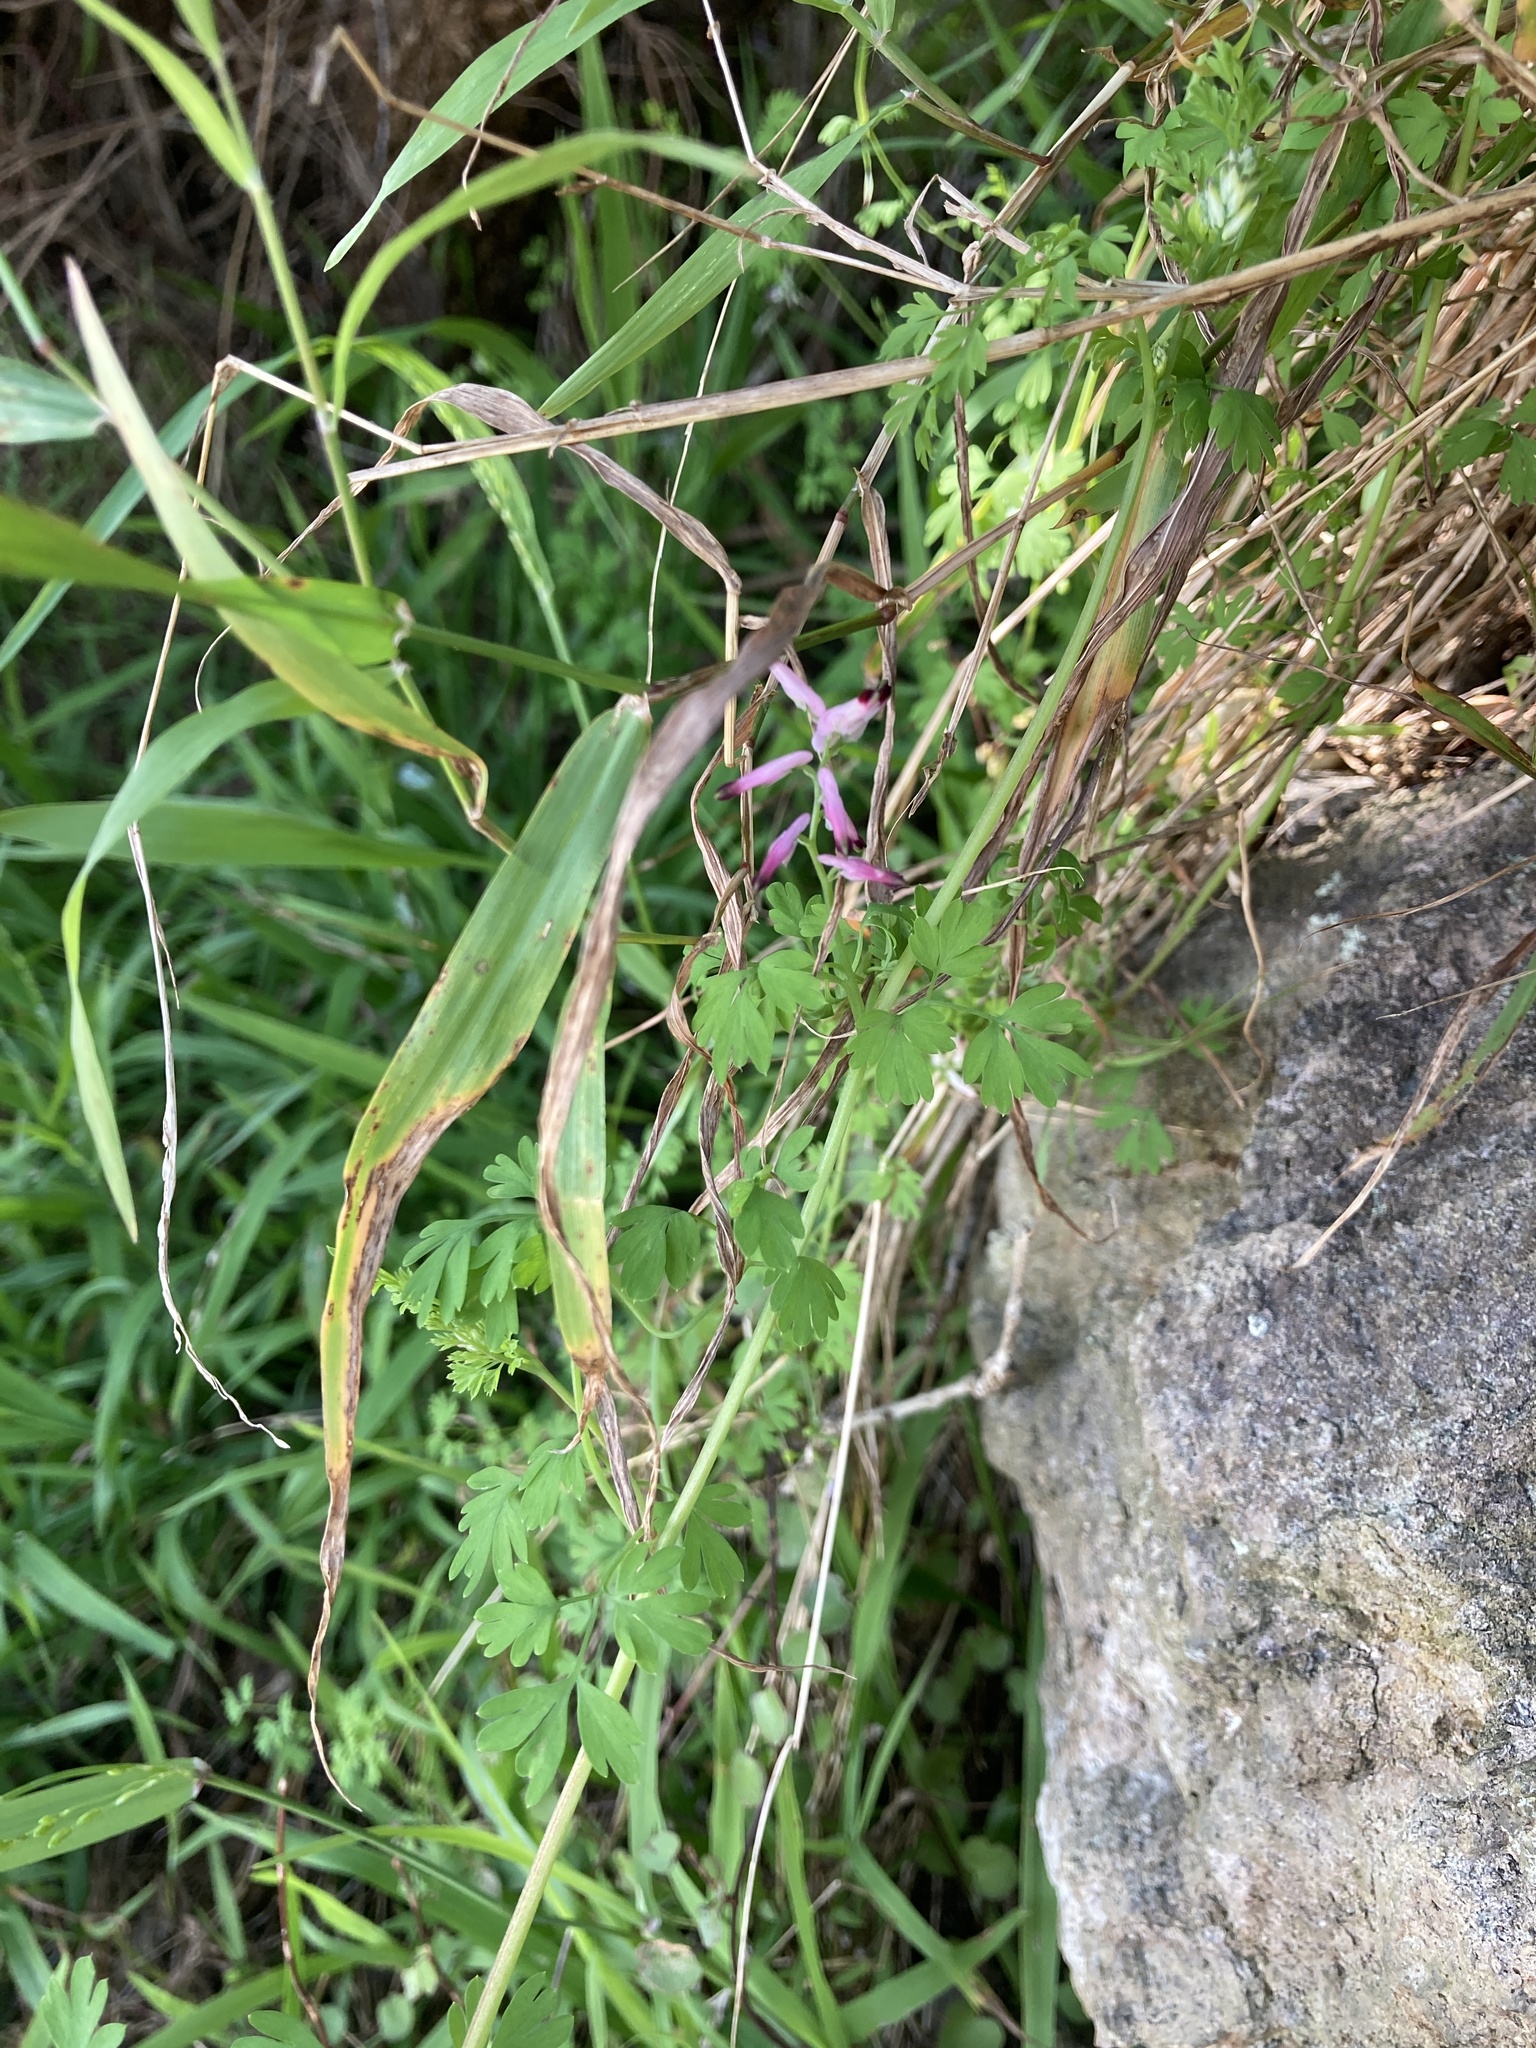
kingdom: Plantae
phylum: Tracheophyta
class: Magnoliopsida
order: Ranunculales
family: Papaveraceae
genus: Fumaria
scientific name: Fumaria muralis
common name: Common ramping-fumitory
